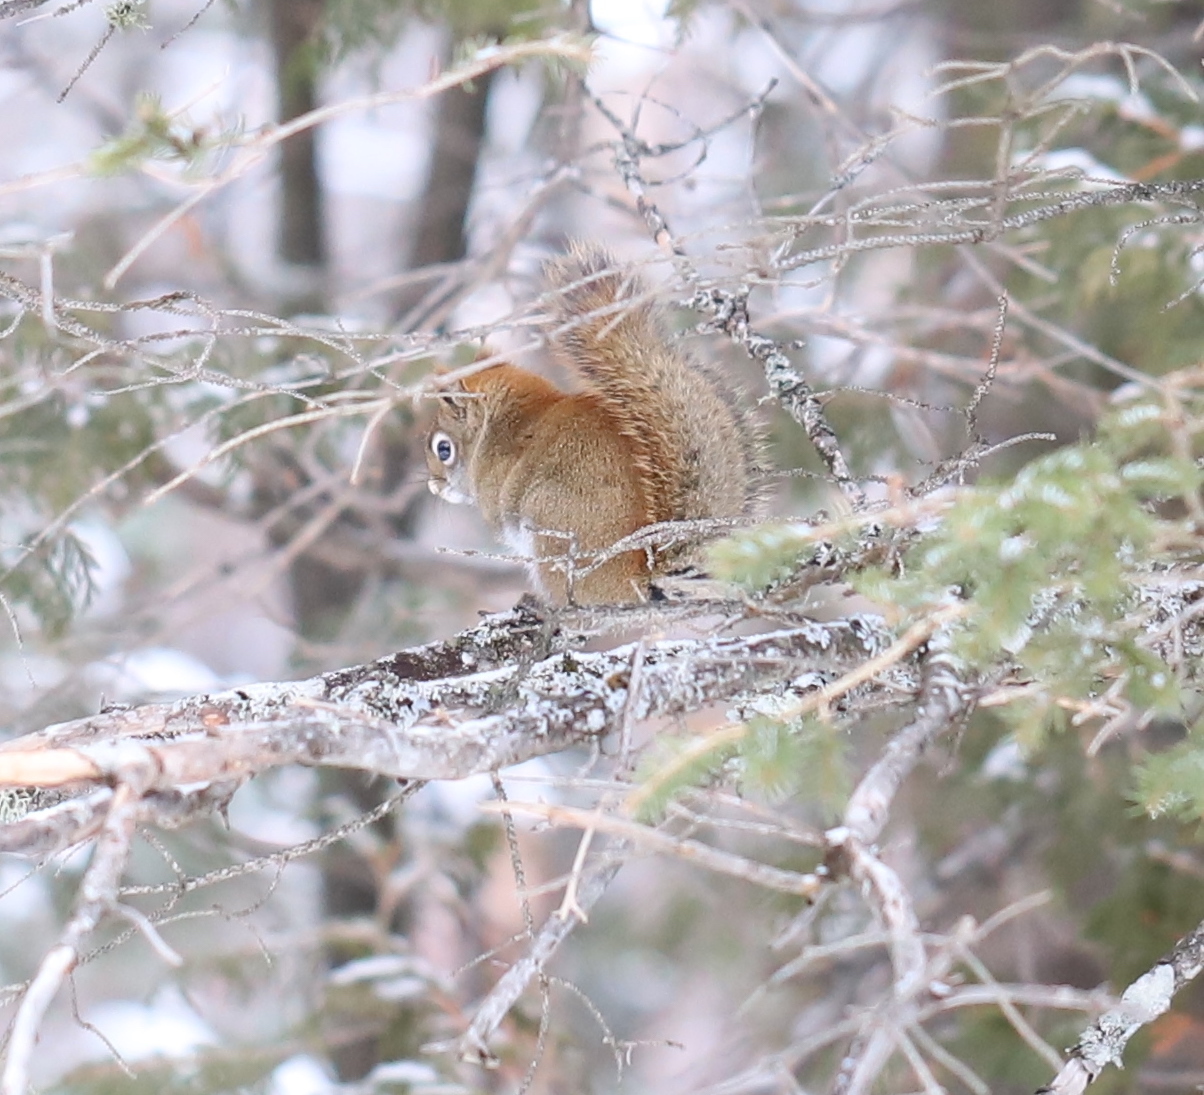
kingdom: Animalia
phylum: Chordata
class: Mammalia
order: Rodentia
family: Sciuridae
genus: Tamiasciurus
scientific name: Tamiasciurus hudsonicus
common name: Red squirrel
